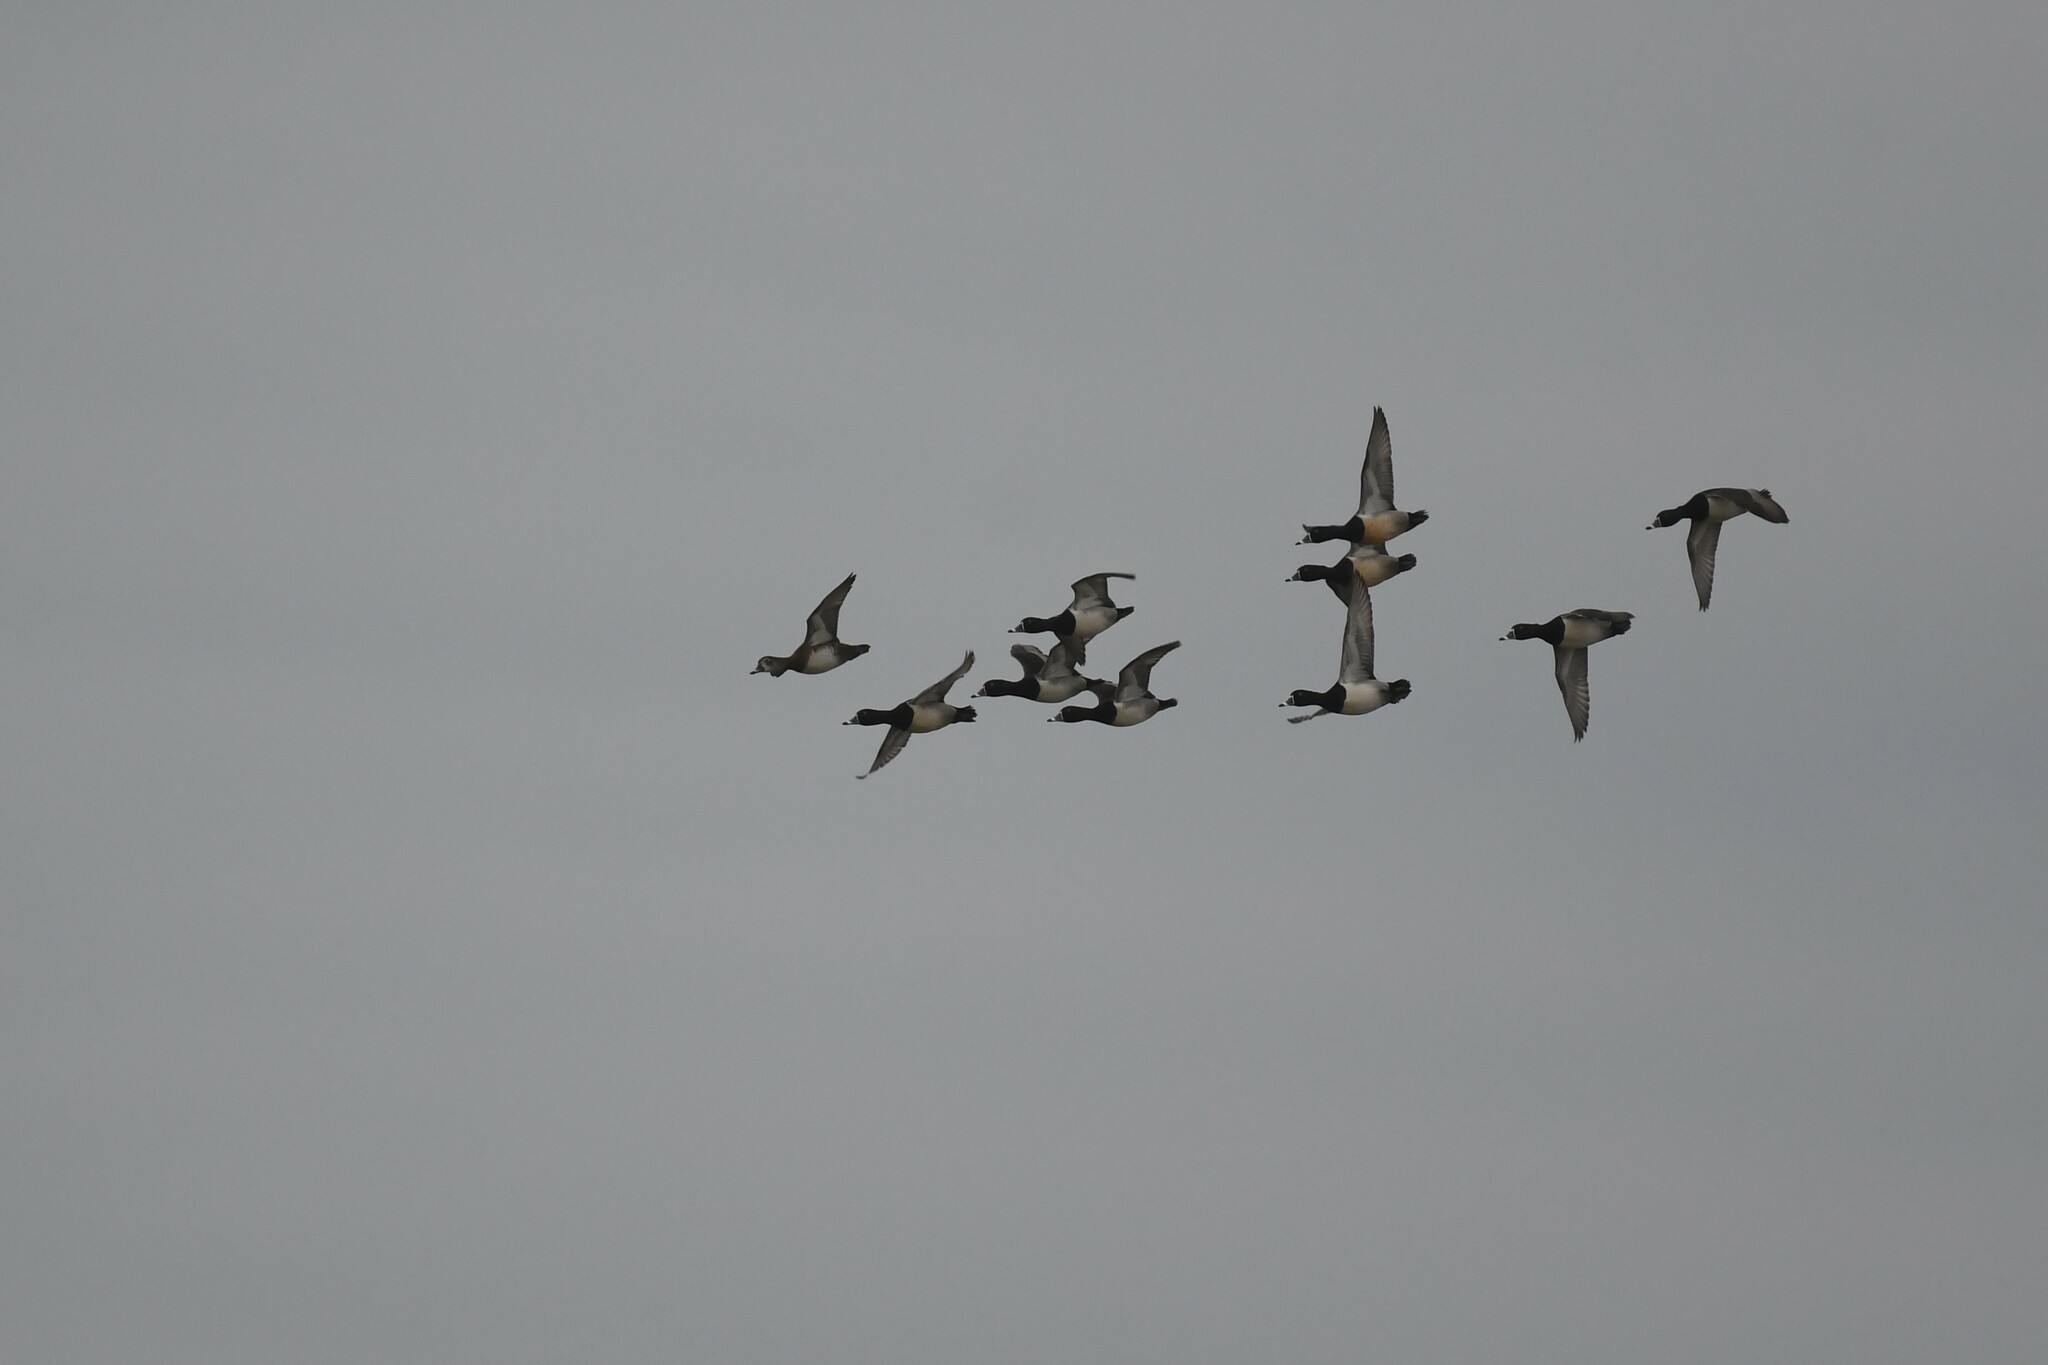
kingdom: Animalia
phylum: Chordata
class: Aves
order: Anseriformes
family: Anatidae
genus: Aythya
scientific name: Aythya collaris
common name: Ring-necked duck
